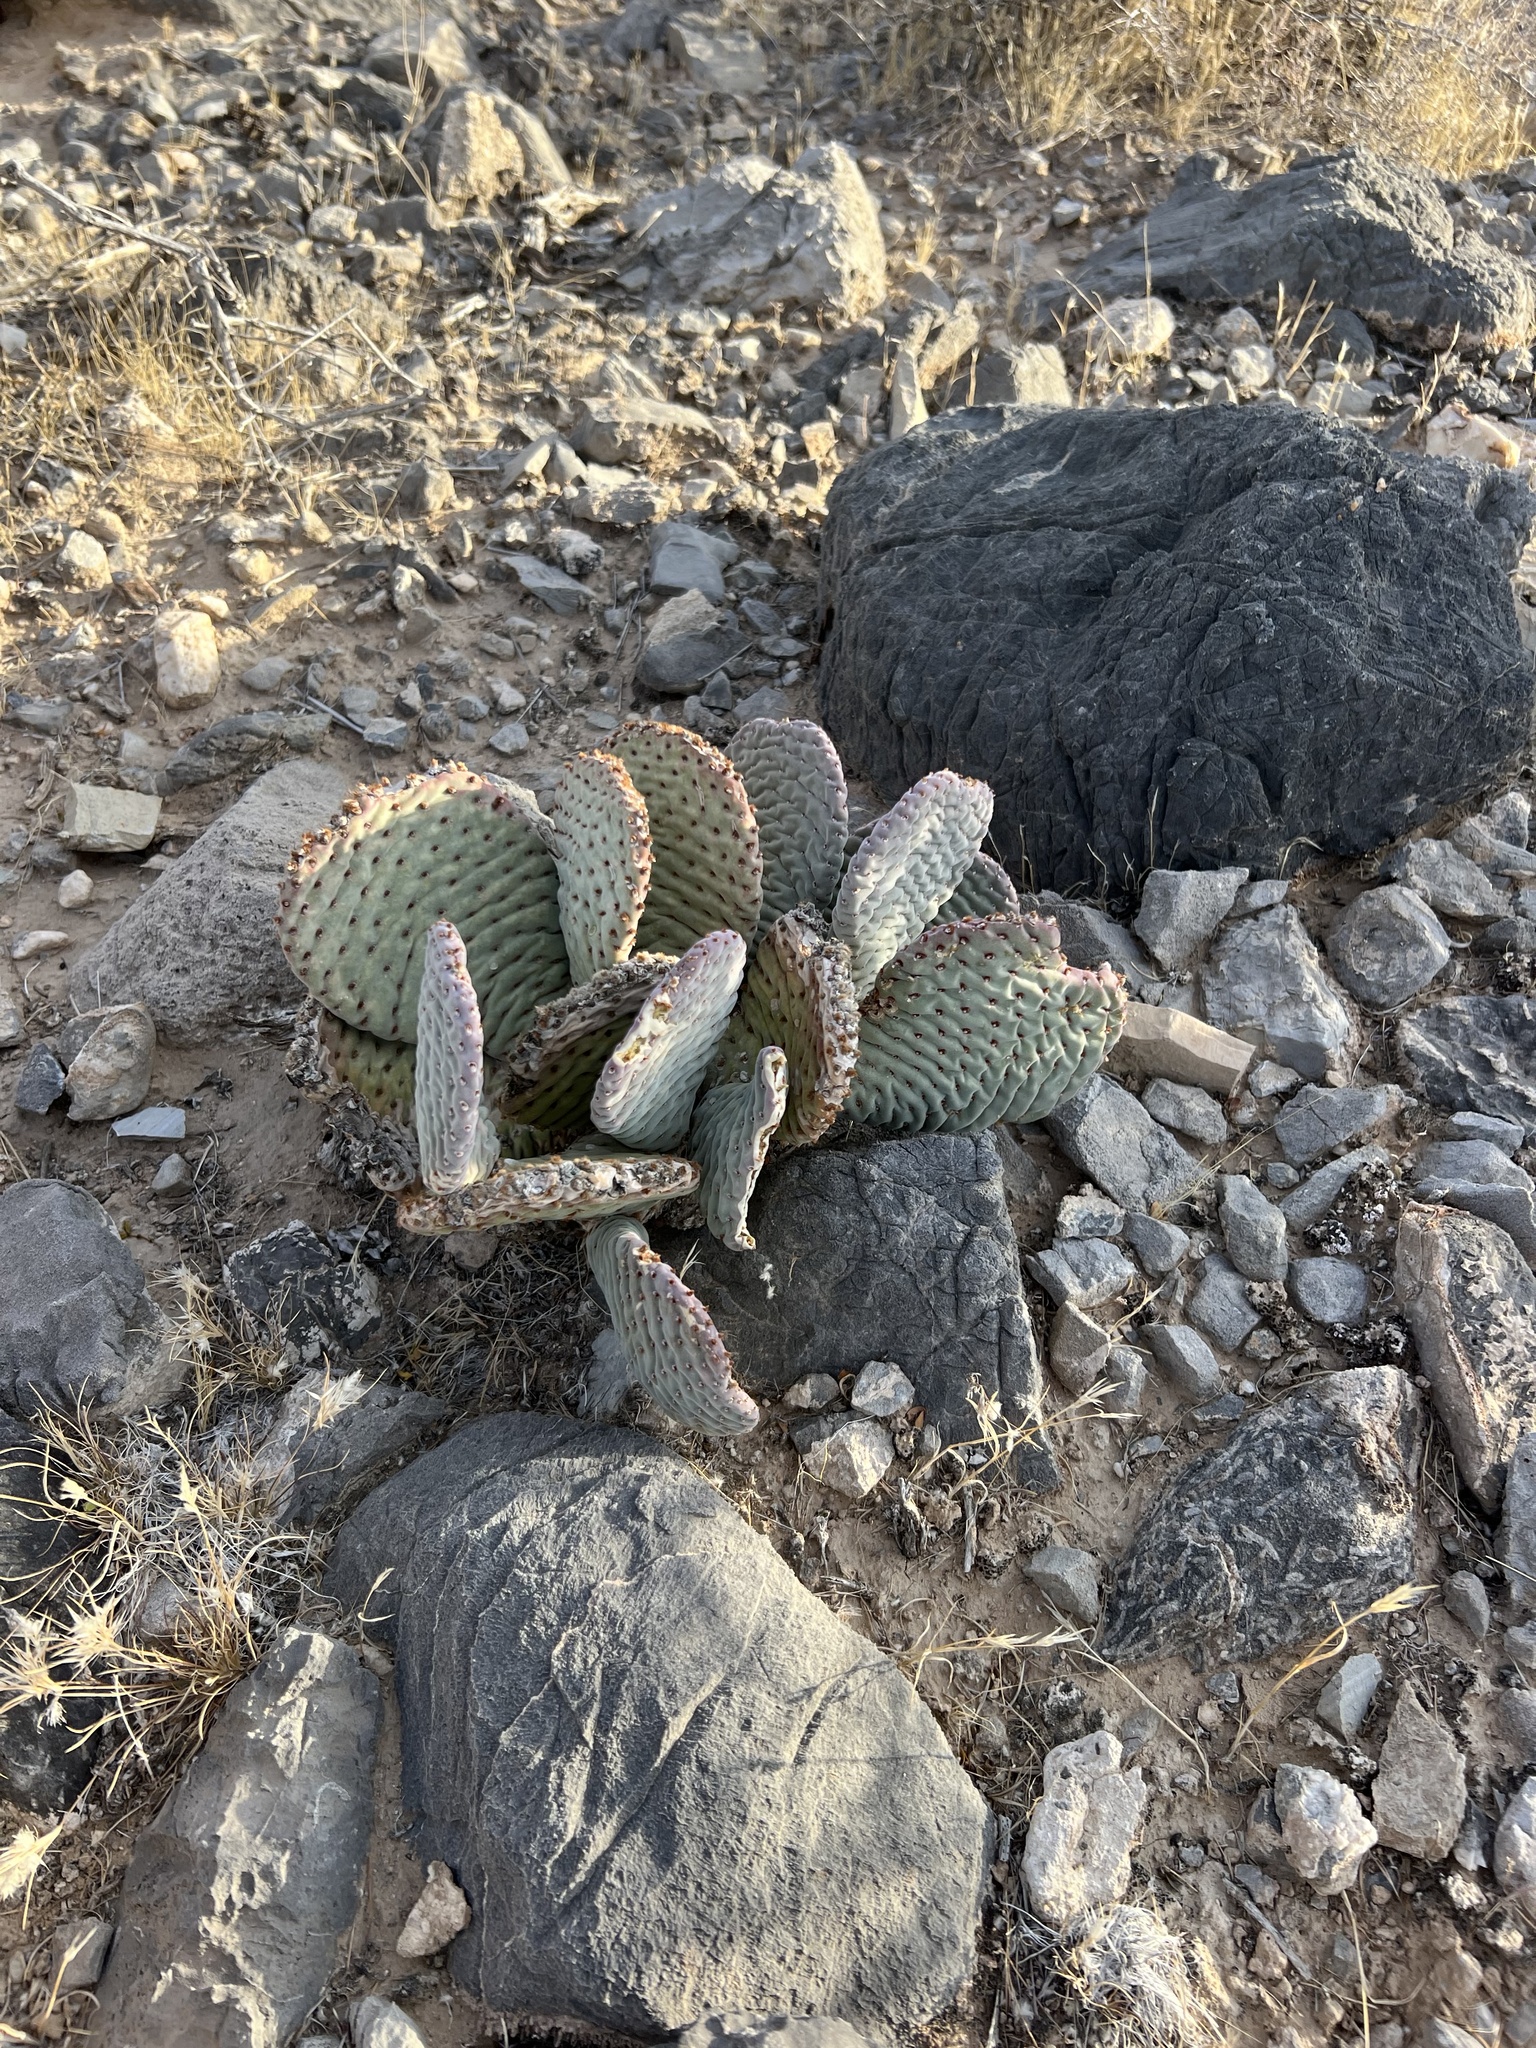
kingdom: Plantae
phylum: Tracheophyta
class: Magnoliopsida
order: Caryophyllales
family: Cactaceae
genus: Opuntia
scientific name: Opuntia basilaris
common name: Beavertail prickly-pear
